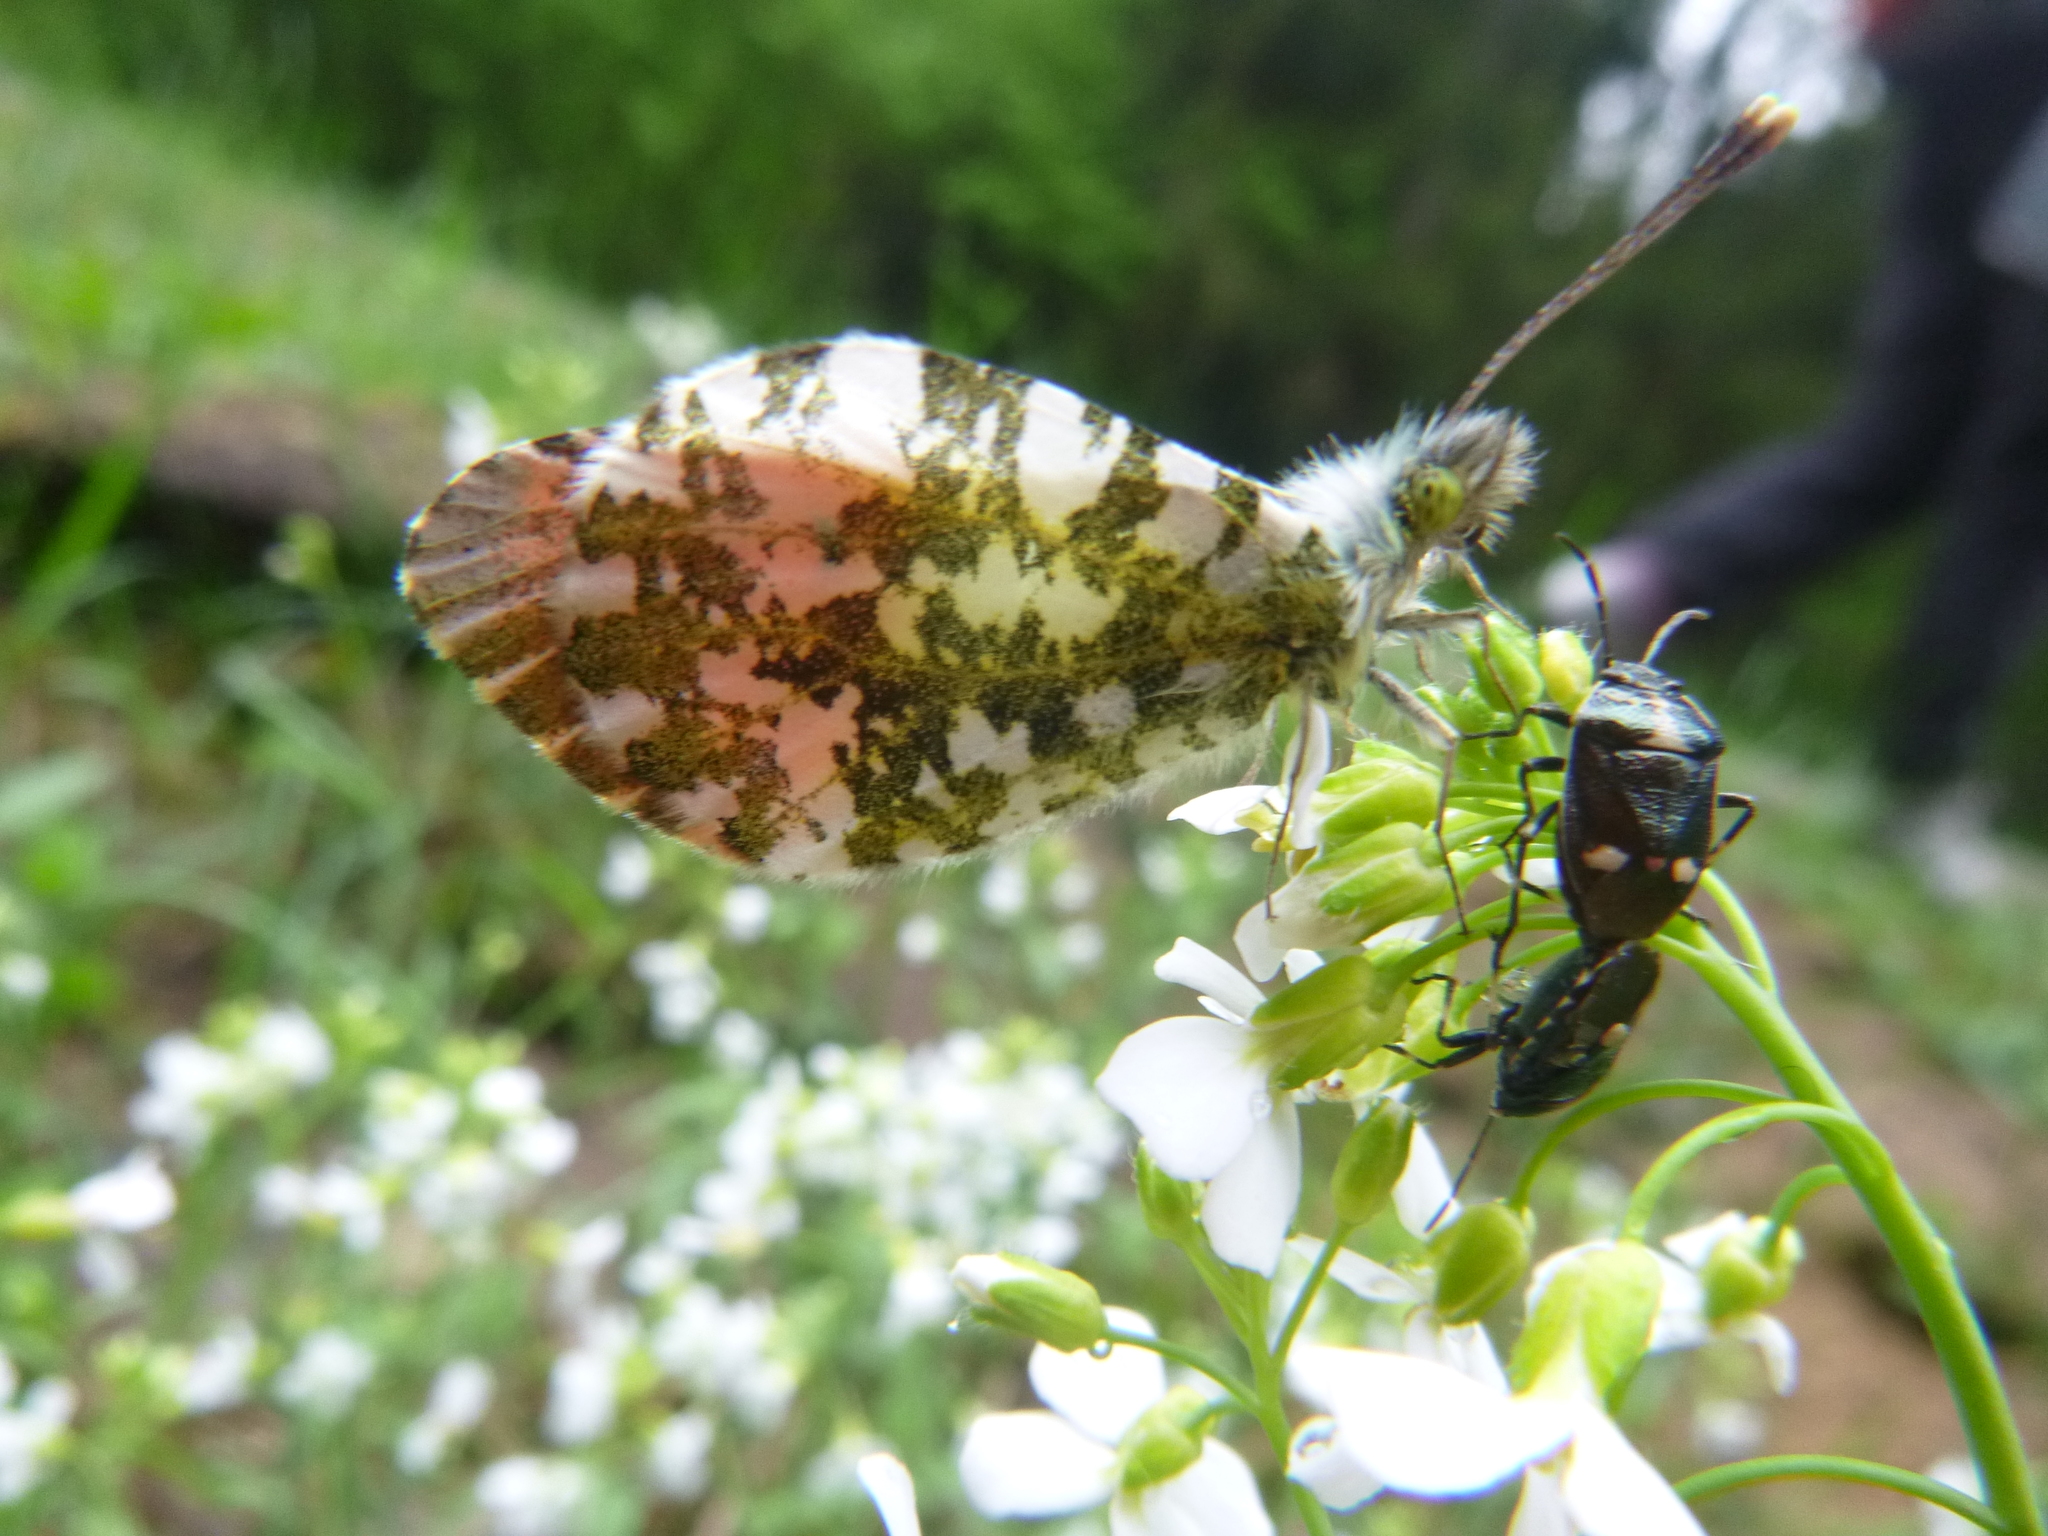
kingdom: Animalia
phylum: Arthropoda
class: Insecta
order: Lepidoptera
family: Pieridae
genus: Anthocharis
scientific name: Anthocharis cardamines
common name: Orange-tip
